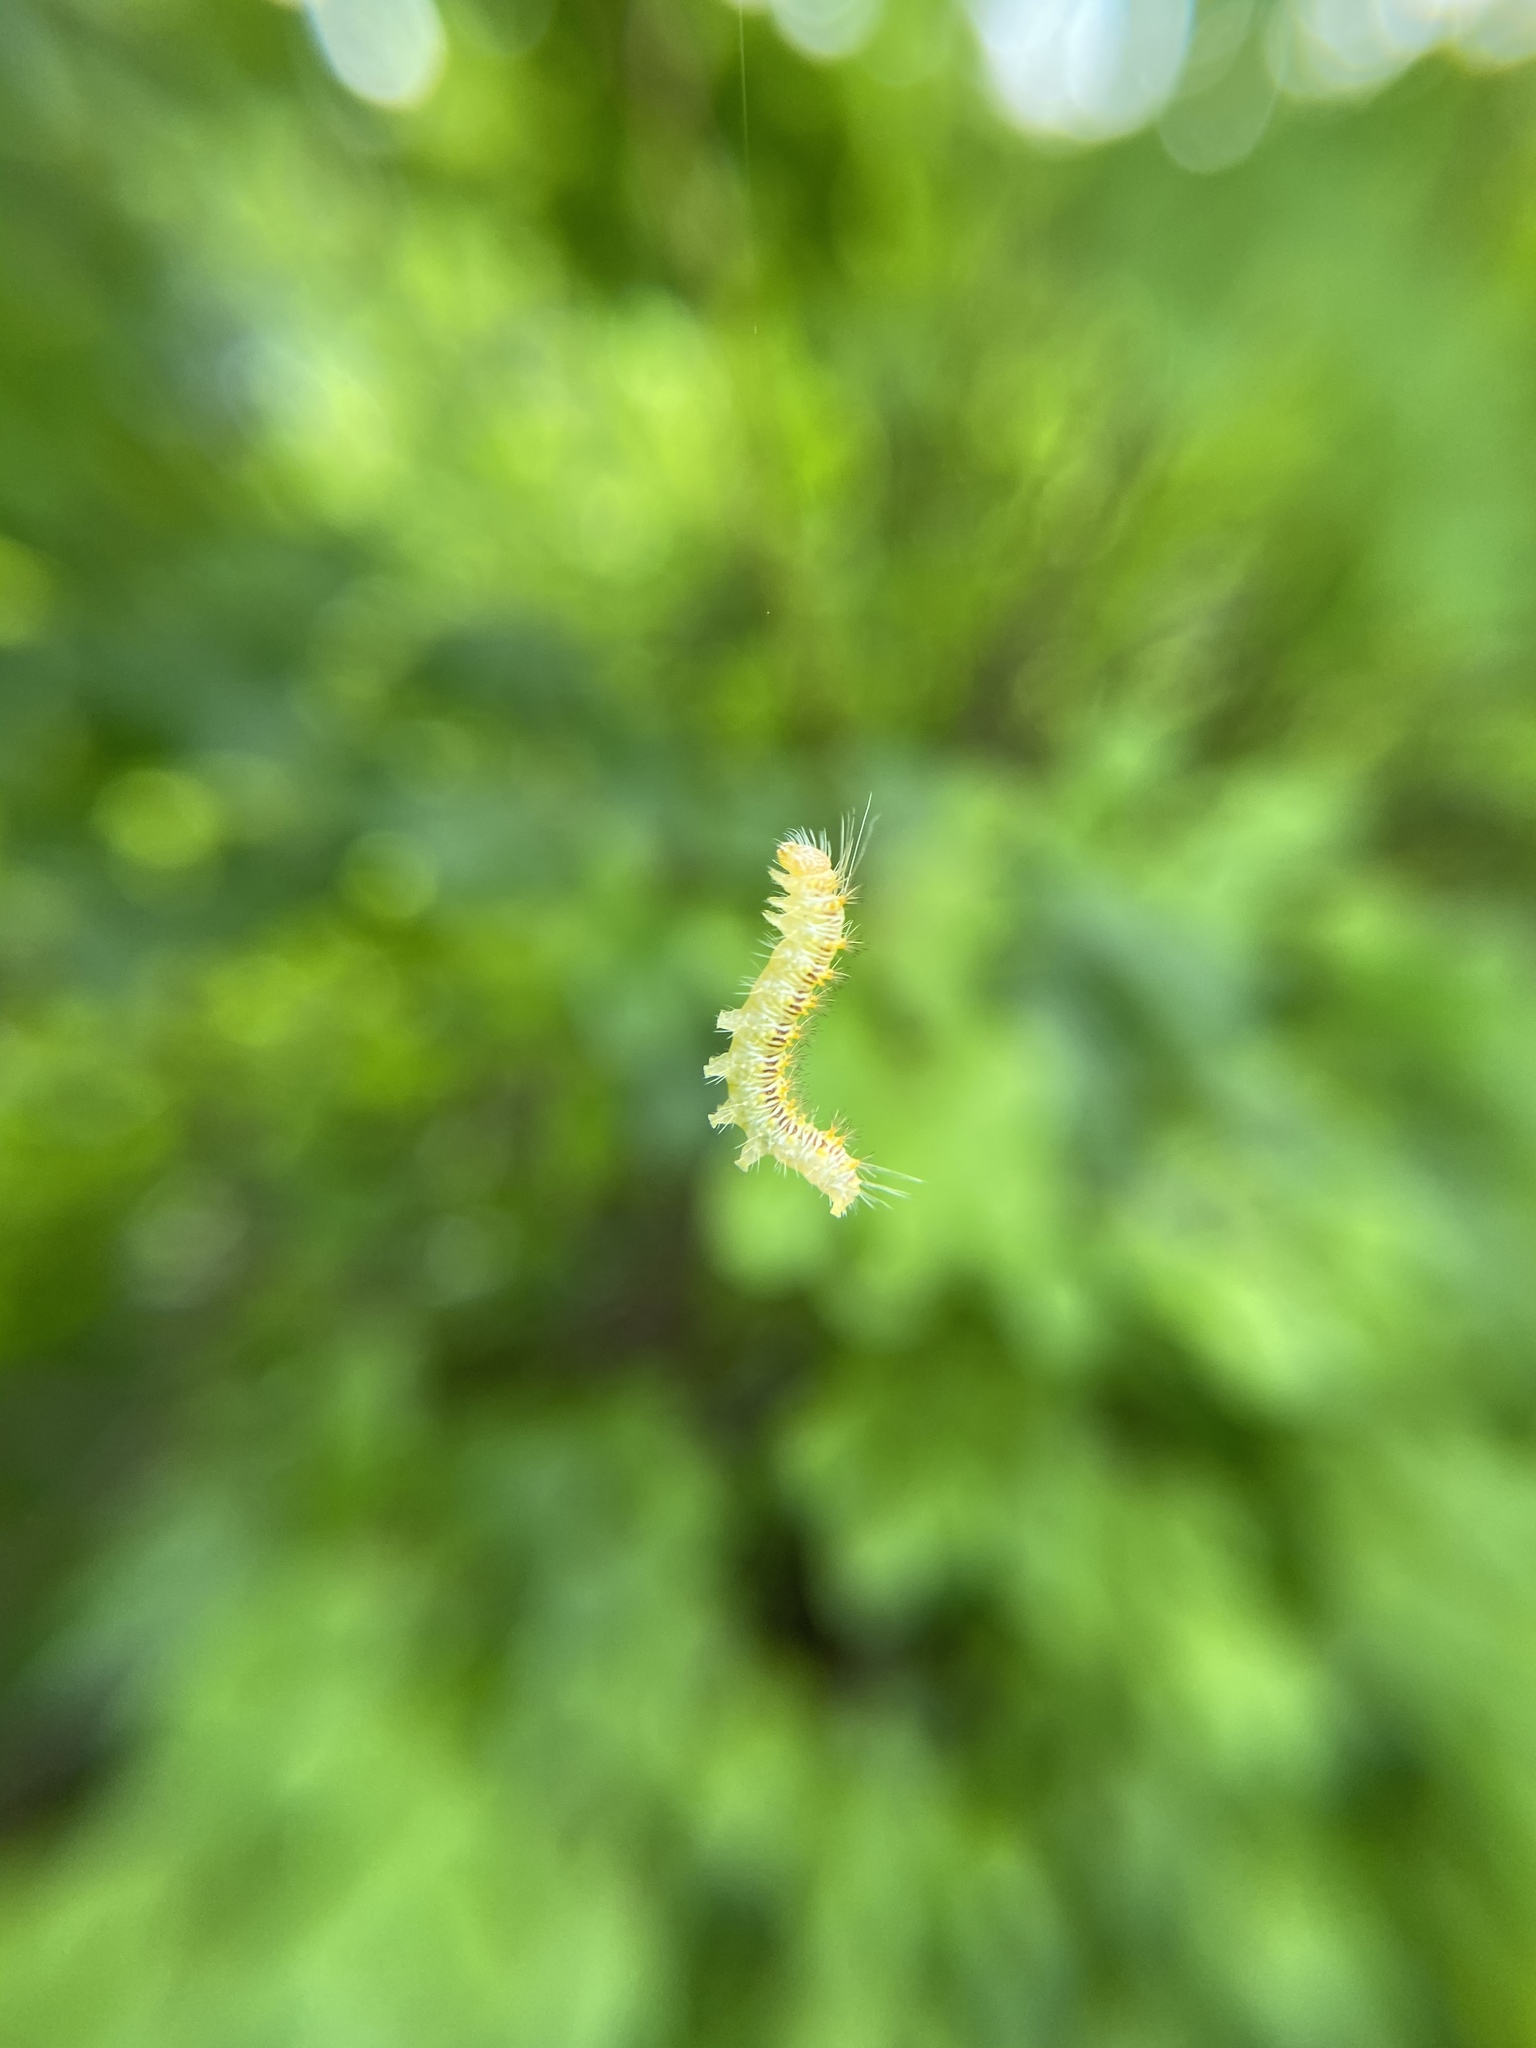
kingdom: Animalia
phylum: Arthropoda
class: Insecta
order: Lepidoptera
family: Noctuidae
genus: Acronicta
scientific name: Acronicta retardata
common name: Maple dagger
